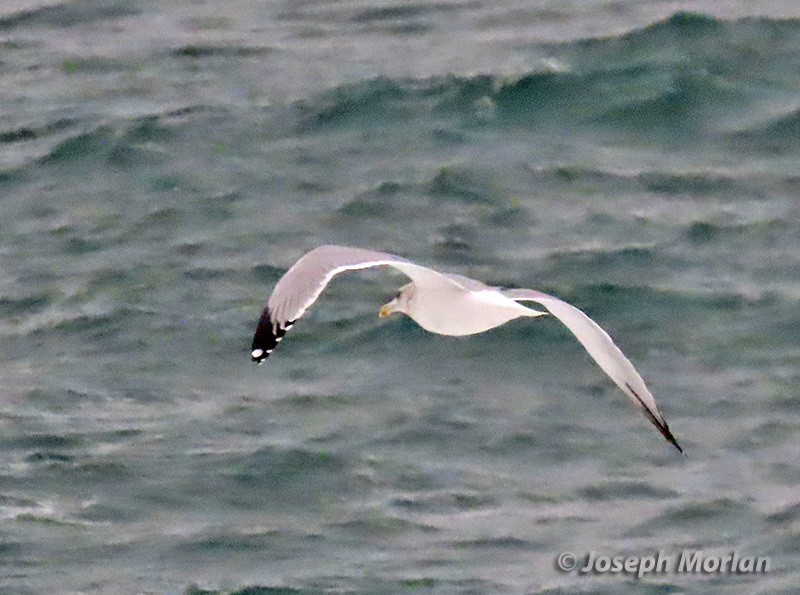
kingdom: Animalia
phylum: Chordata
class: Aves
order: Charadriiformes
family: Laridae
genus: Larus
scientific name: Larus argentatus
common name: Herring gull
